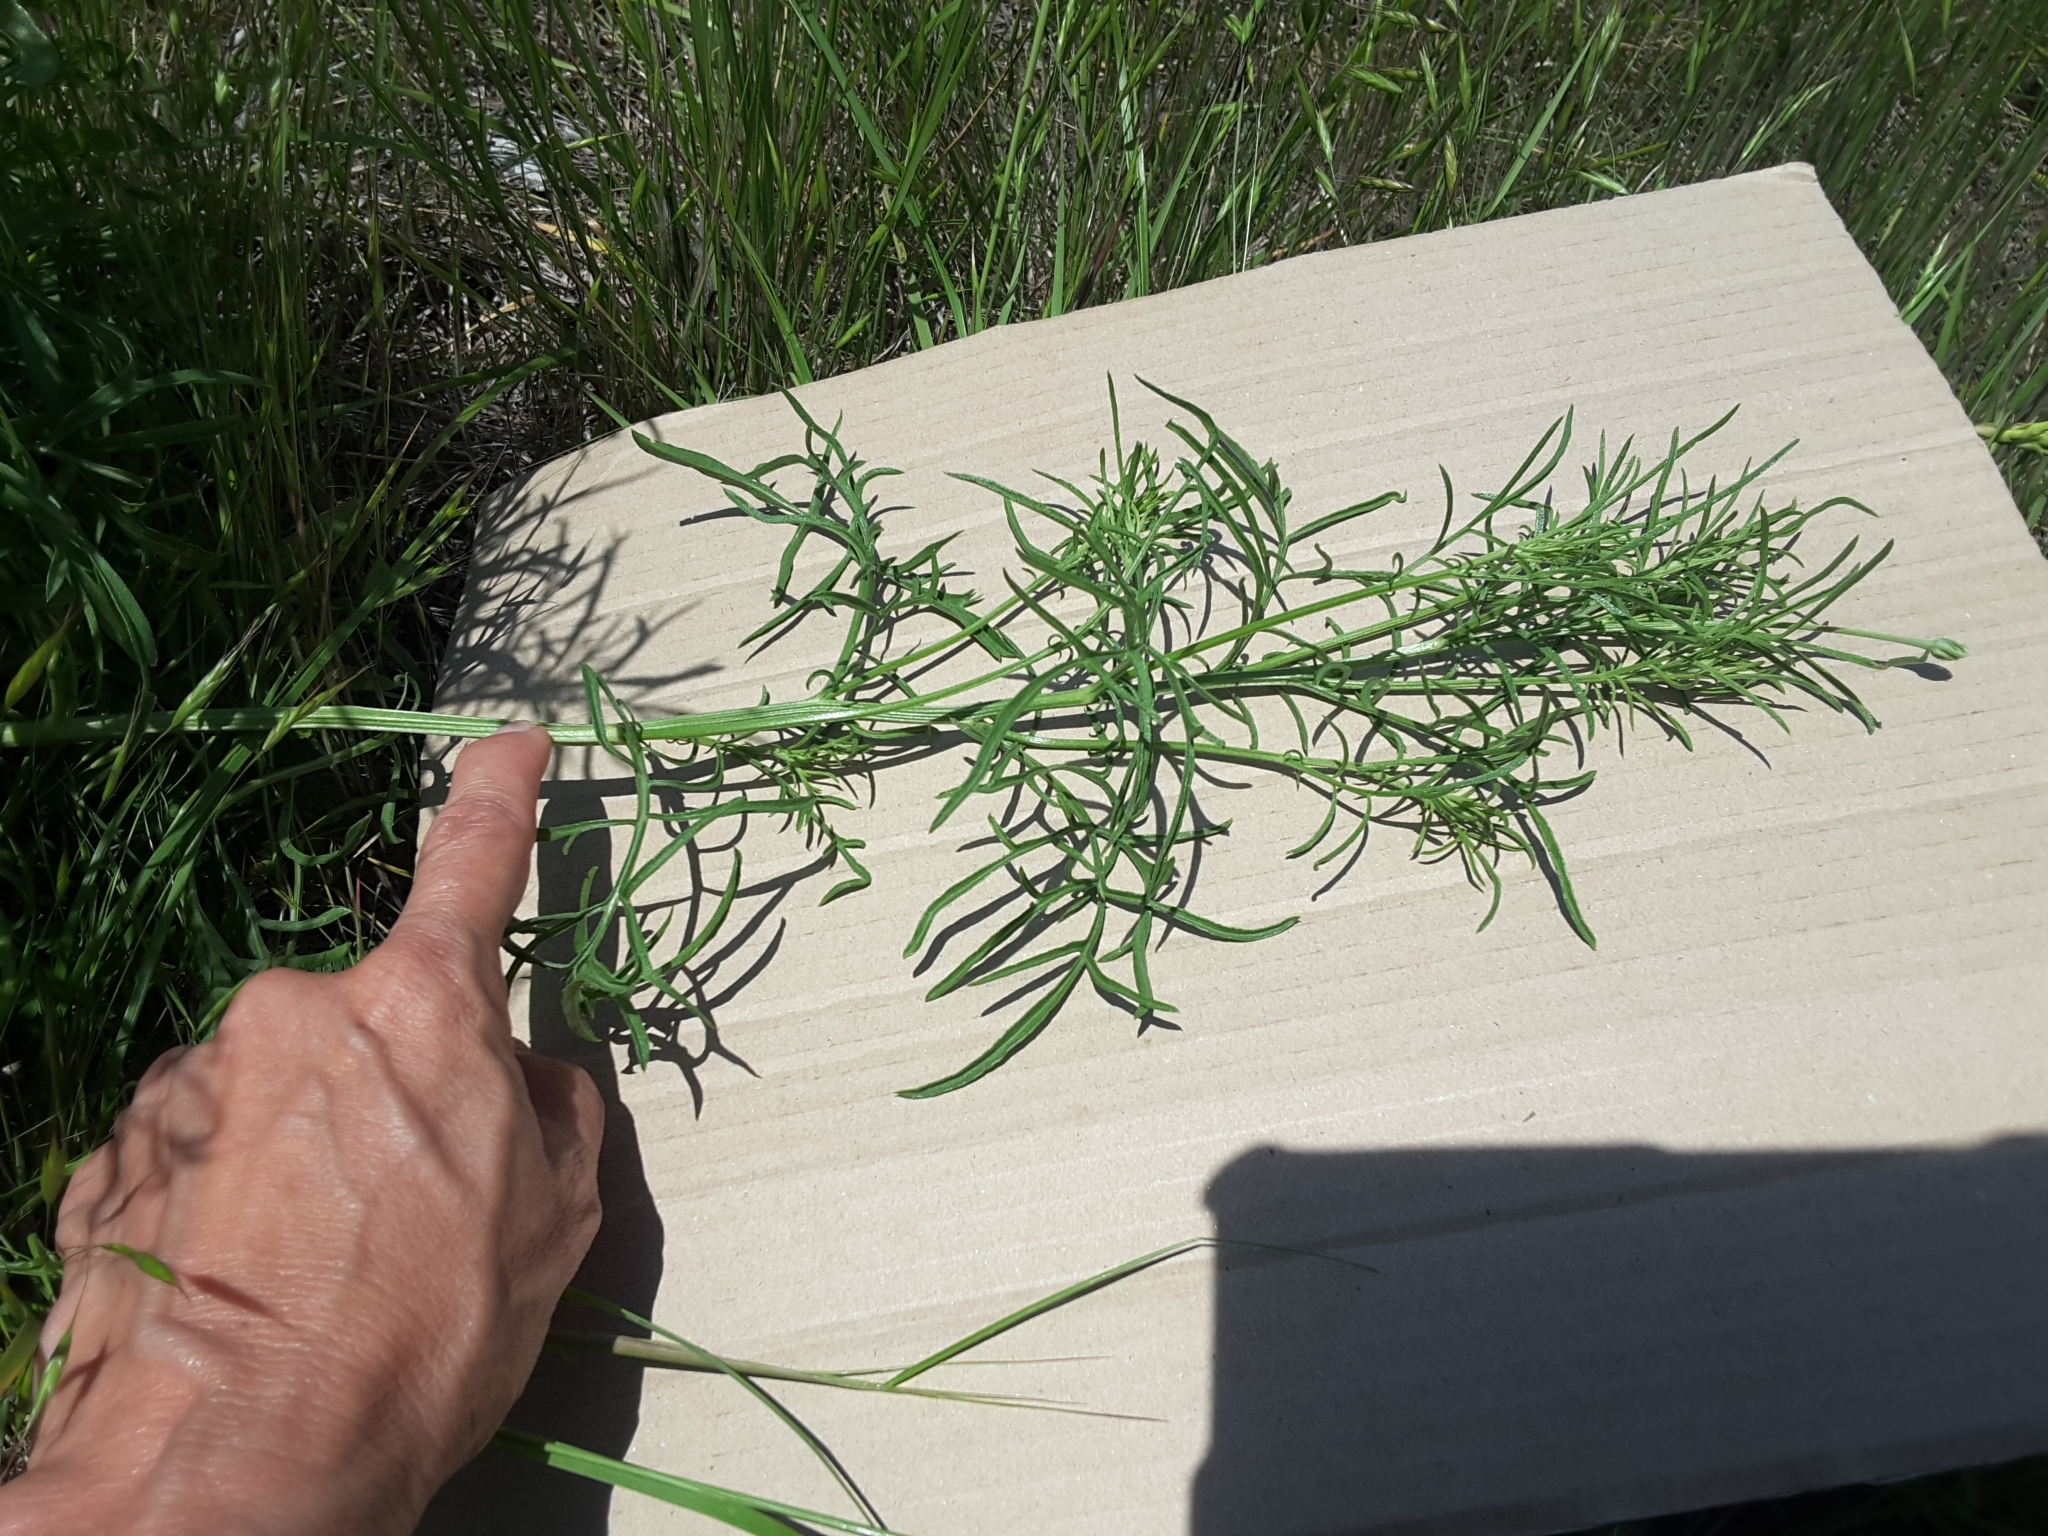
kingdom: Plantae
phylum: Tracheophyta
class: Magnoliopsida
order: Asterales
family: Asteraceae
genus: Ratibida
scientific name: Ratibida columnifera
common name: Prairie coneflower
